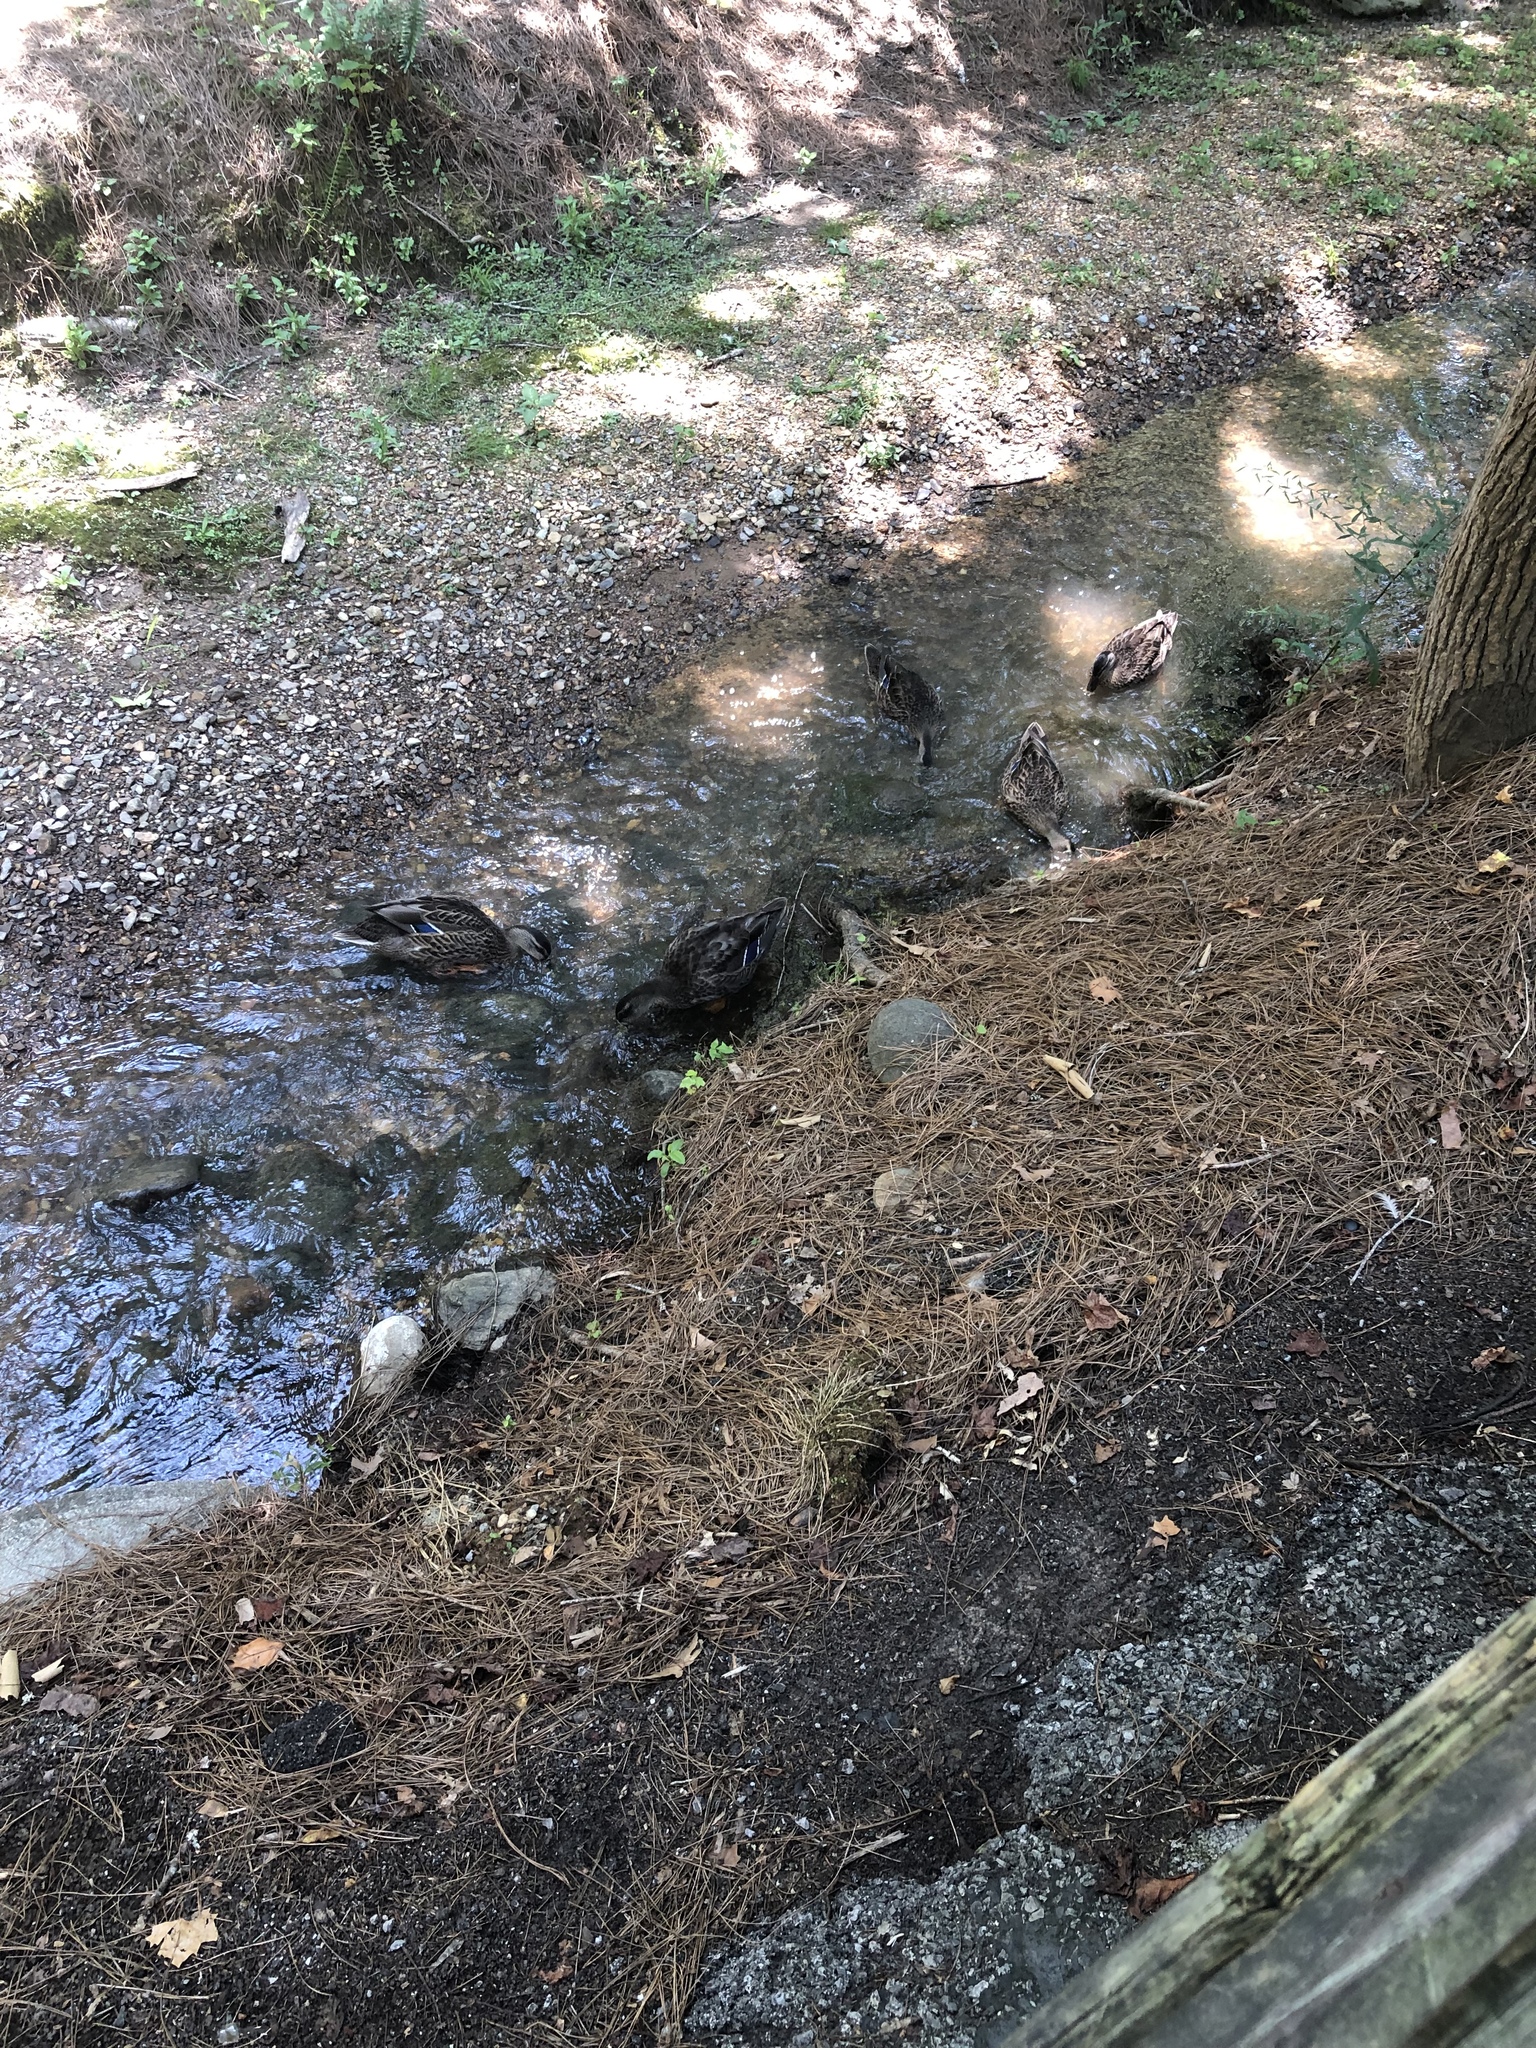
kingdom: Animalia
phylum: Chordata
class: Aves
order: Anseriformes
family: Anatidae
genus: Anas
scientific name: Anas platyrhynchos
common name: Mallard
